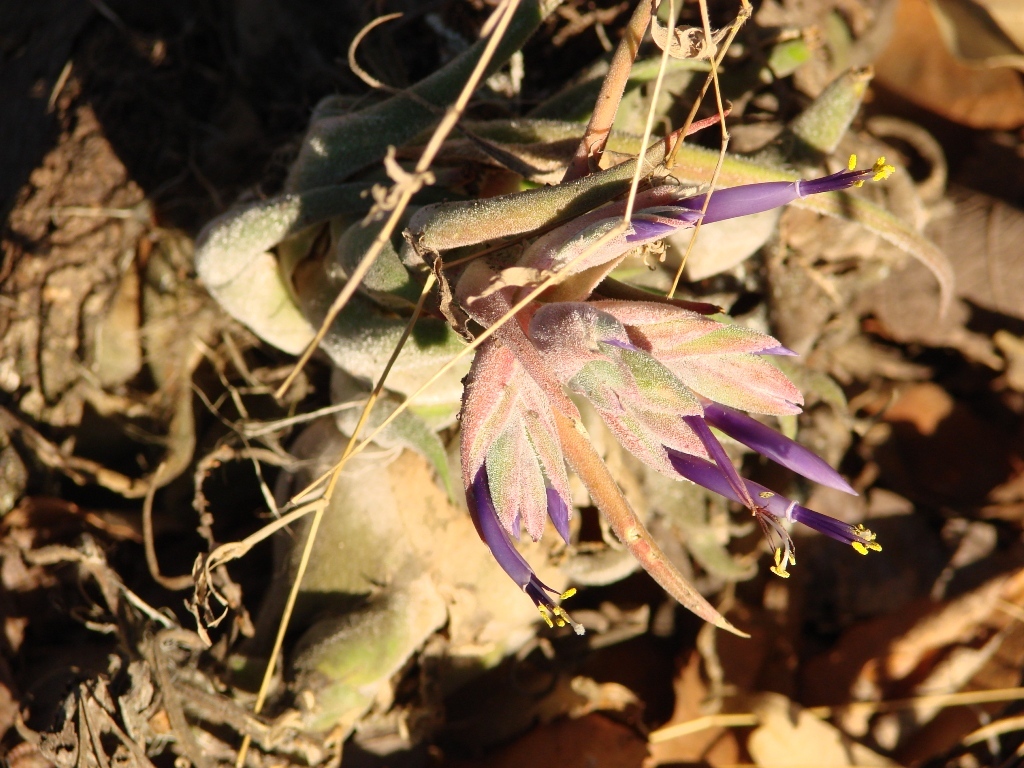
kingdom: Plantae
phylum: Tracheophyta
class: Liliopsida
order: Poales
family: Bromeliaceae
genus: Tillandsia
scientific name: Tillandsia seleriana
